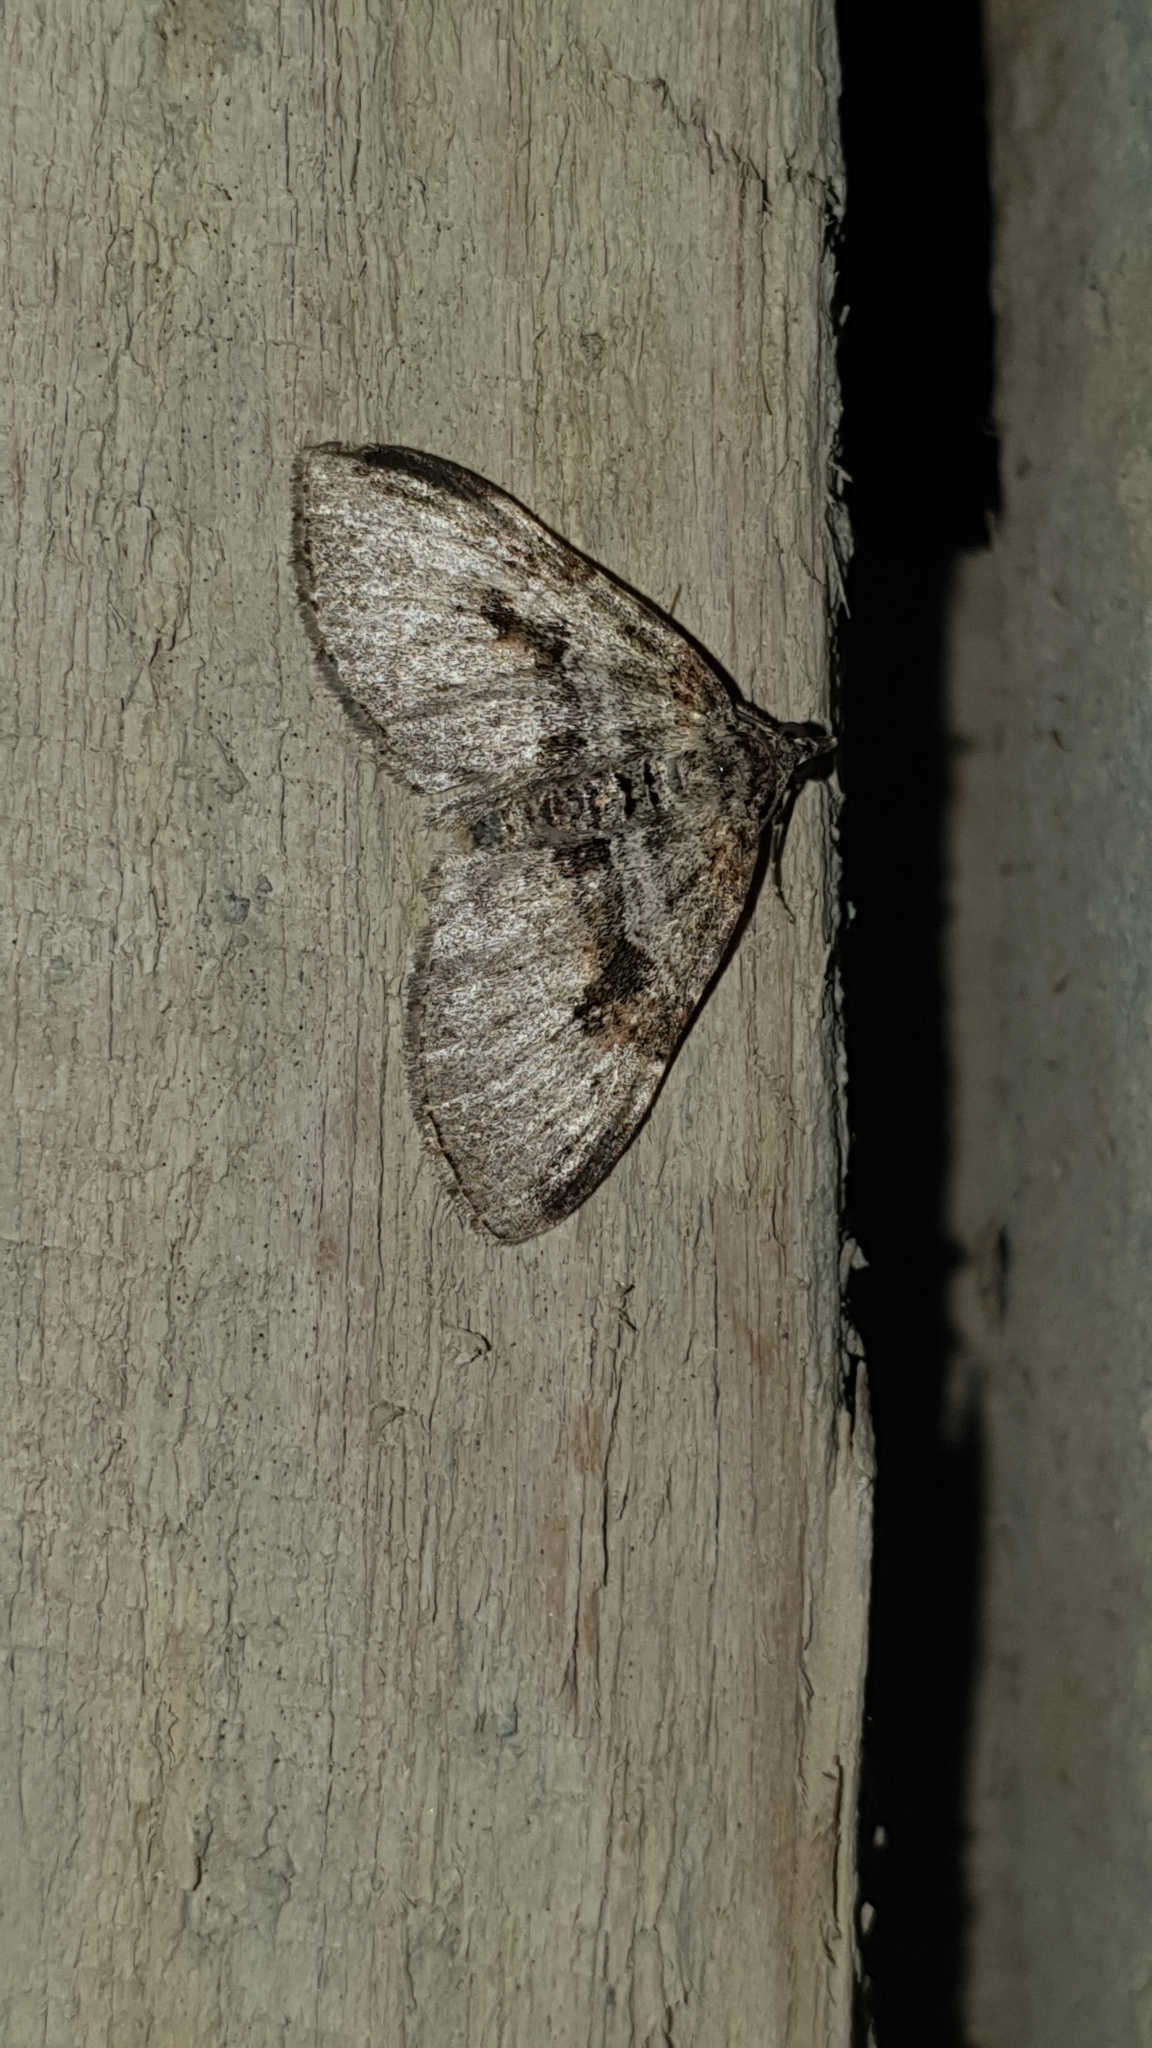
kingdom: Animalia
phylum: Arthropoda
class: Insecta
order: Lepidoptera
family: Geometridae
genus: Xanthorhoe
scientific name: Xanthorhoe designata
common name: Flame carpet
